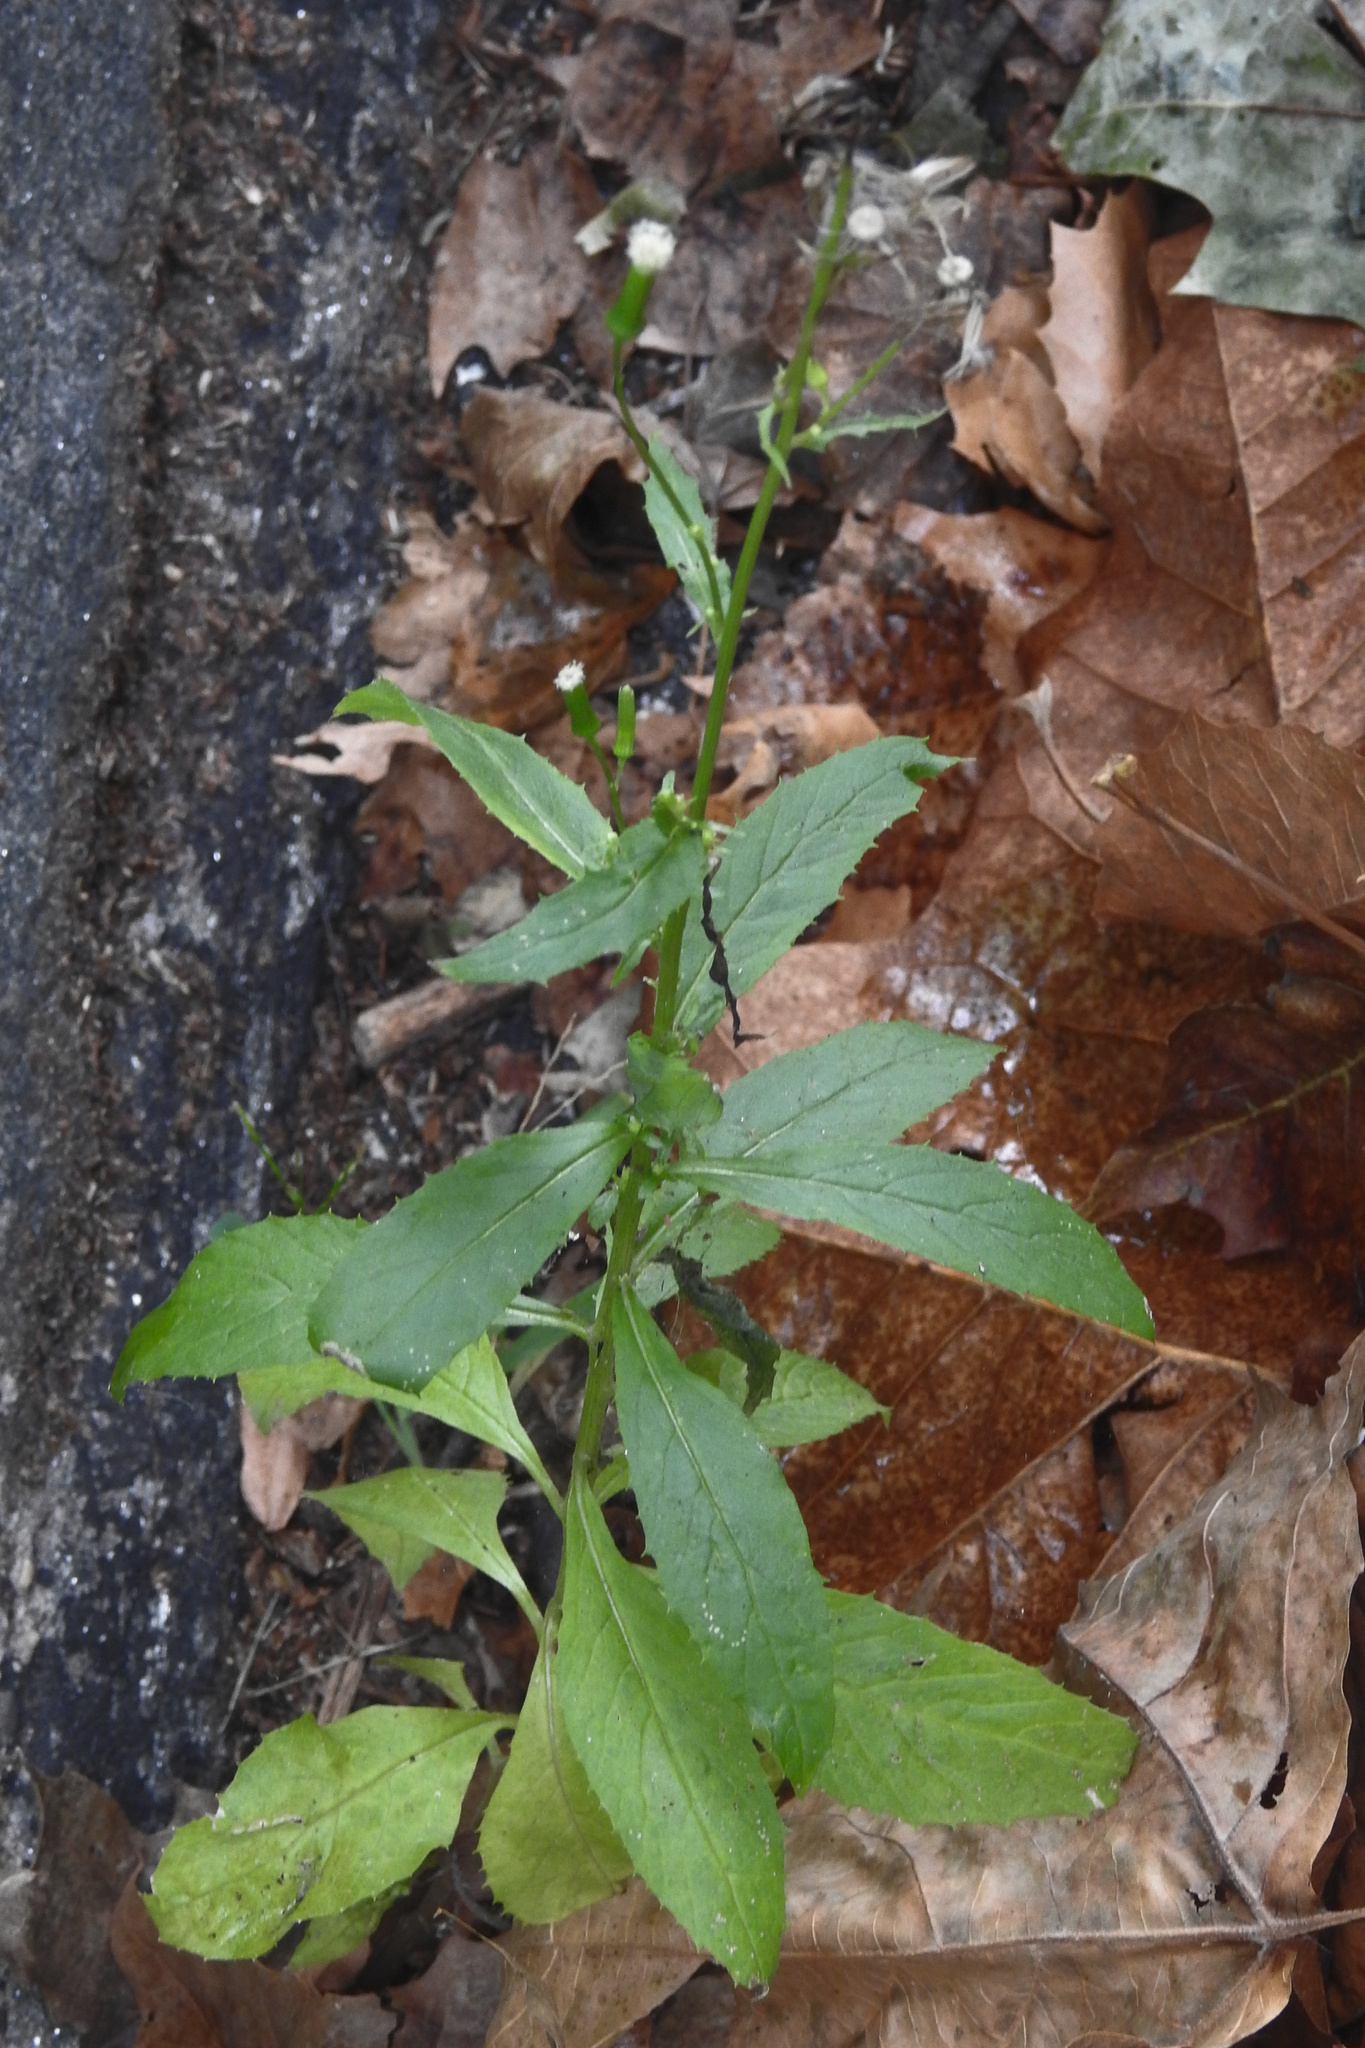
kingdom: Plantae
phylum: Tracheophyta
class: Magnoliopsida
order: Asterales
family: Asteraceae
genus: Erechtites
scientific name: Erechtites hieraciifolius
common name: American burnweed
